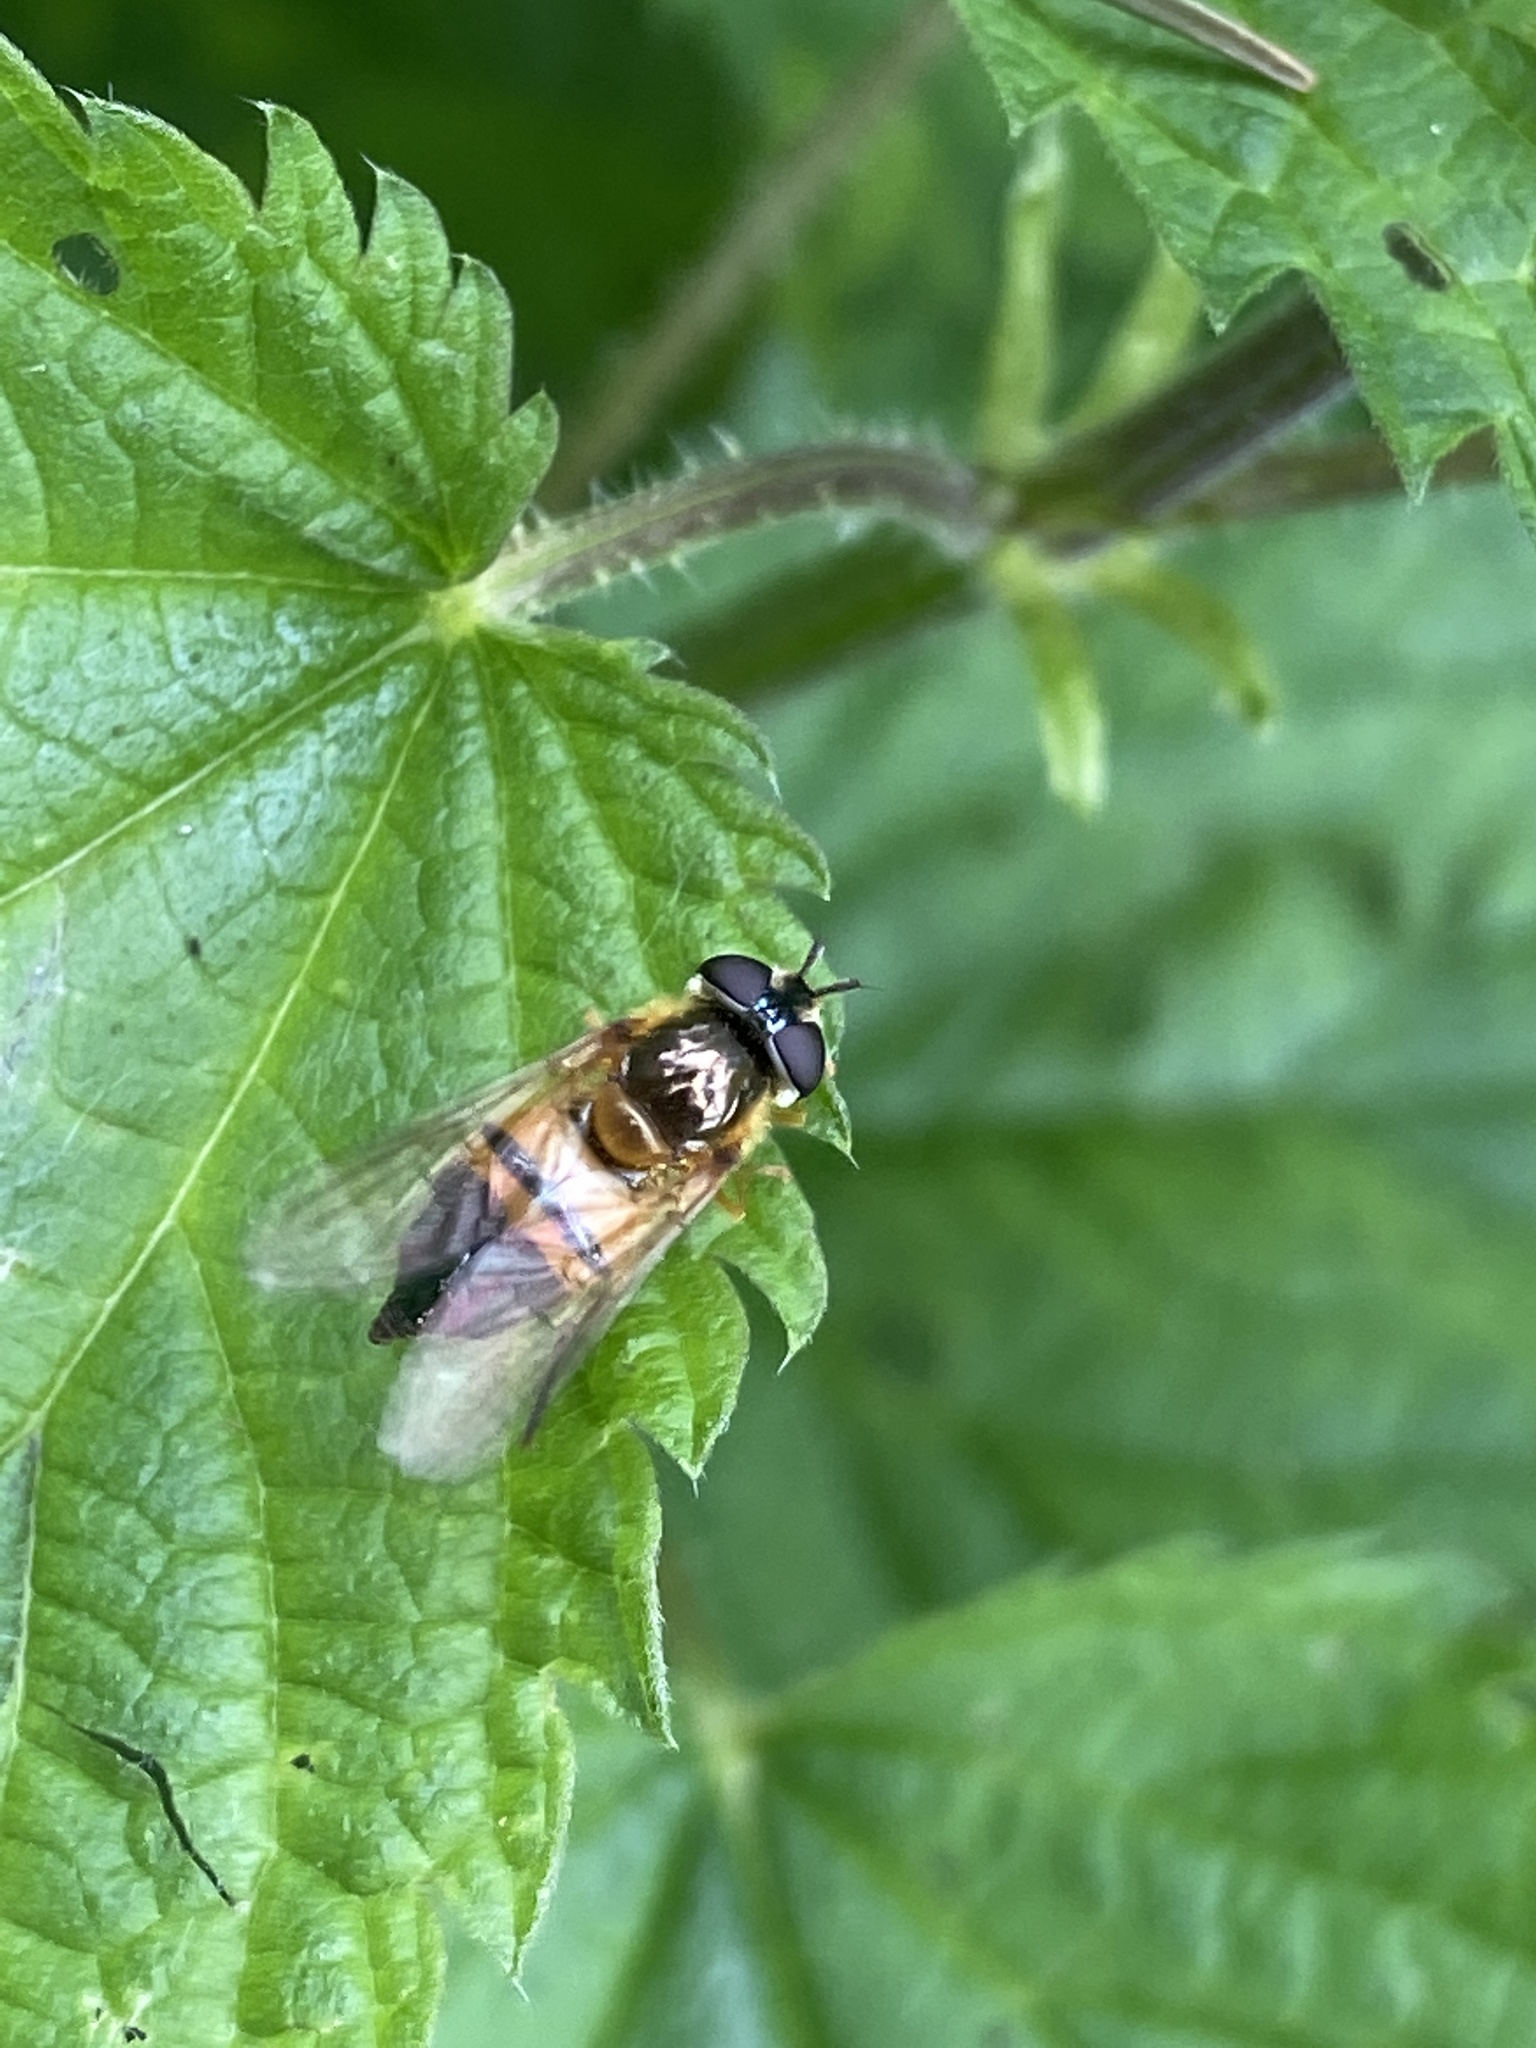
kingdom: Animalia
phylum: Arthropoda
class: Insecta
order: Diptera
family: Syrphidae
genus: Epistrophe
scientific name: Epistrophe eligans
